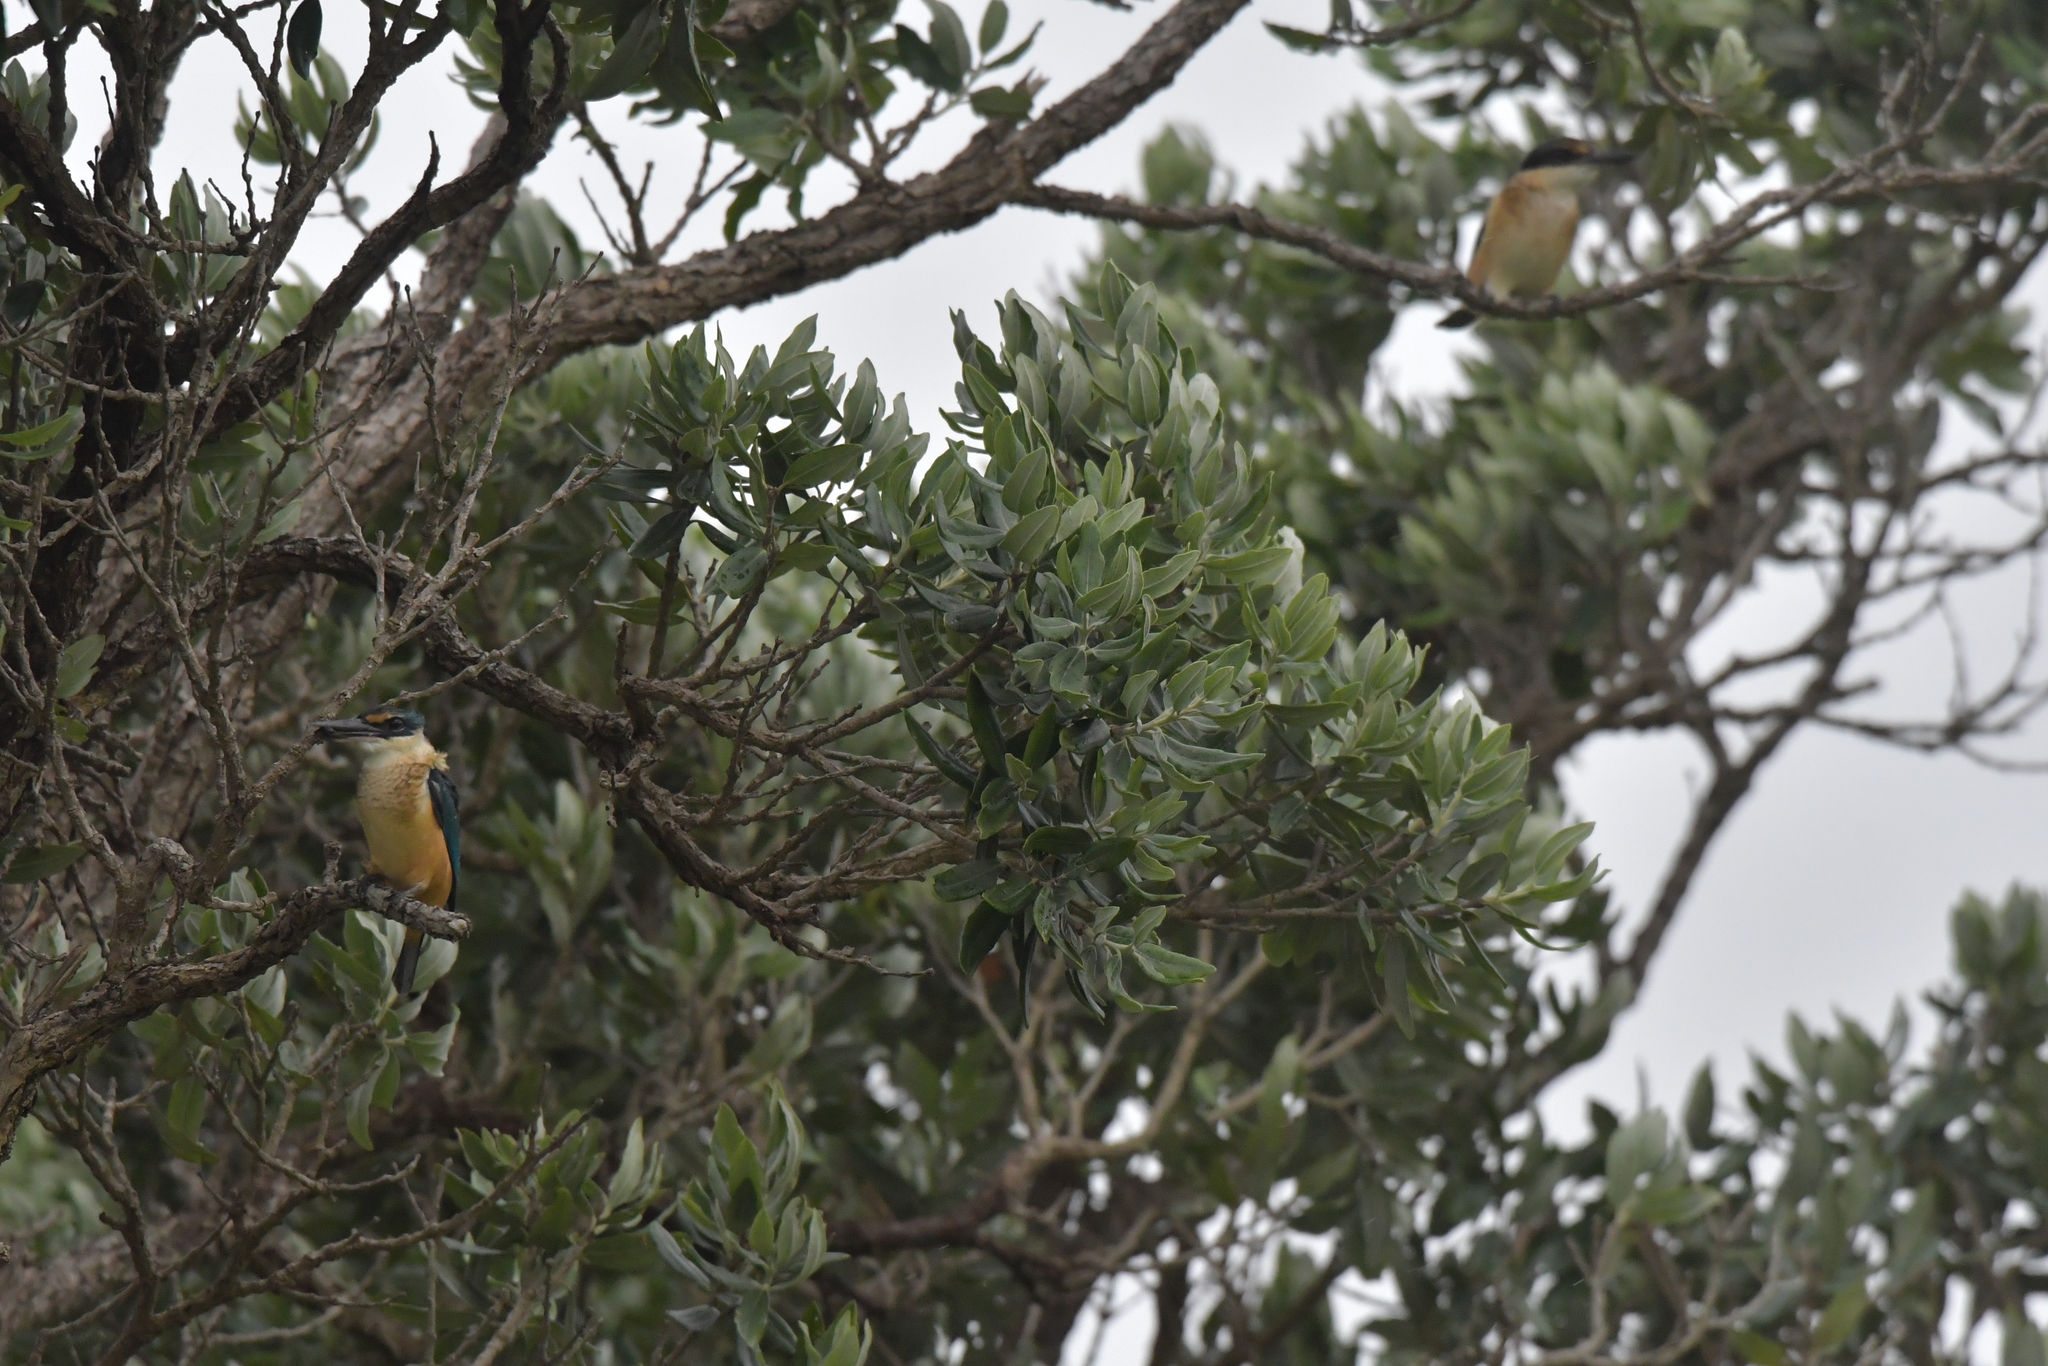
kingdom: Animalia
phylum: Chordata
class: Aves
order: Coraciiformes
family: Alcedinidae
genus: Todiramphus
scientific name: Todiramphus sanctus
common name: Sacred kingfisher
